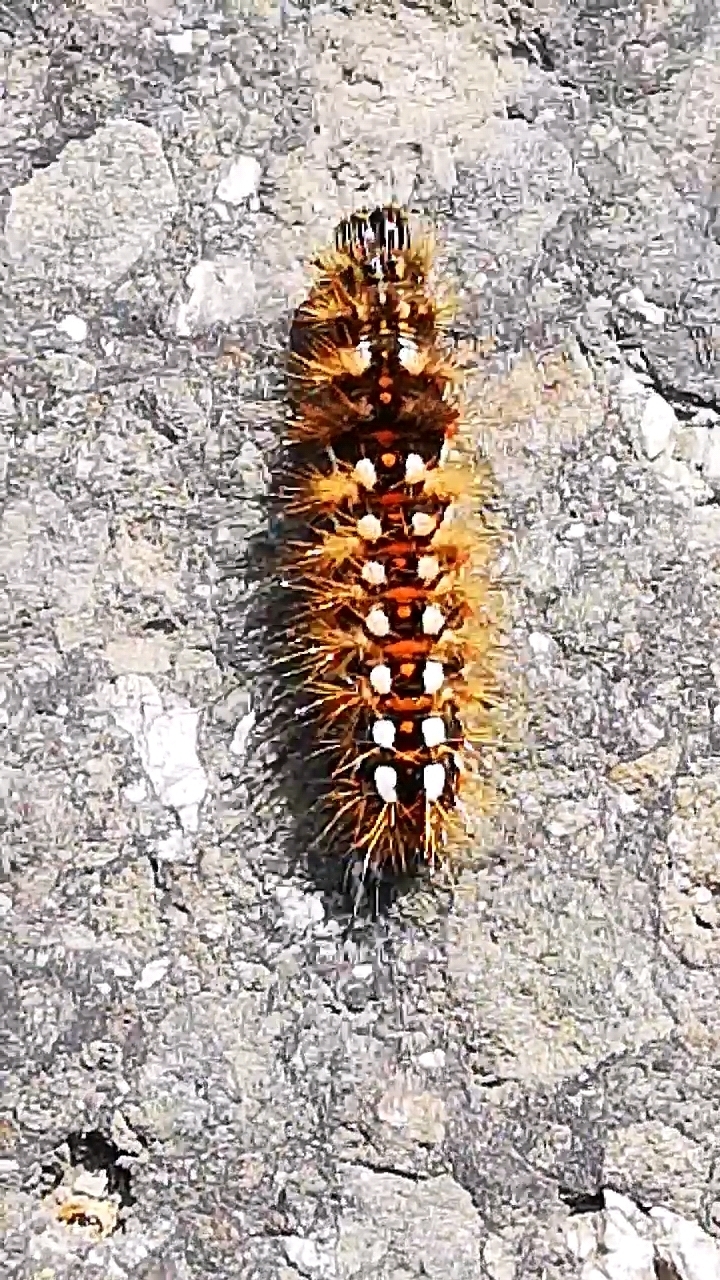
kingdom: Animalia
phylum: Arthropoda
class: Insecta
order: Lepidoptera
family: Noctuidae
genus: Acronicta
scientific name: Acronicta rumicis
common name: Knot grass
